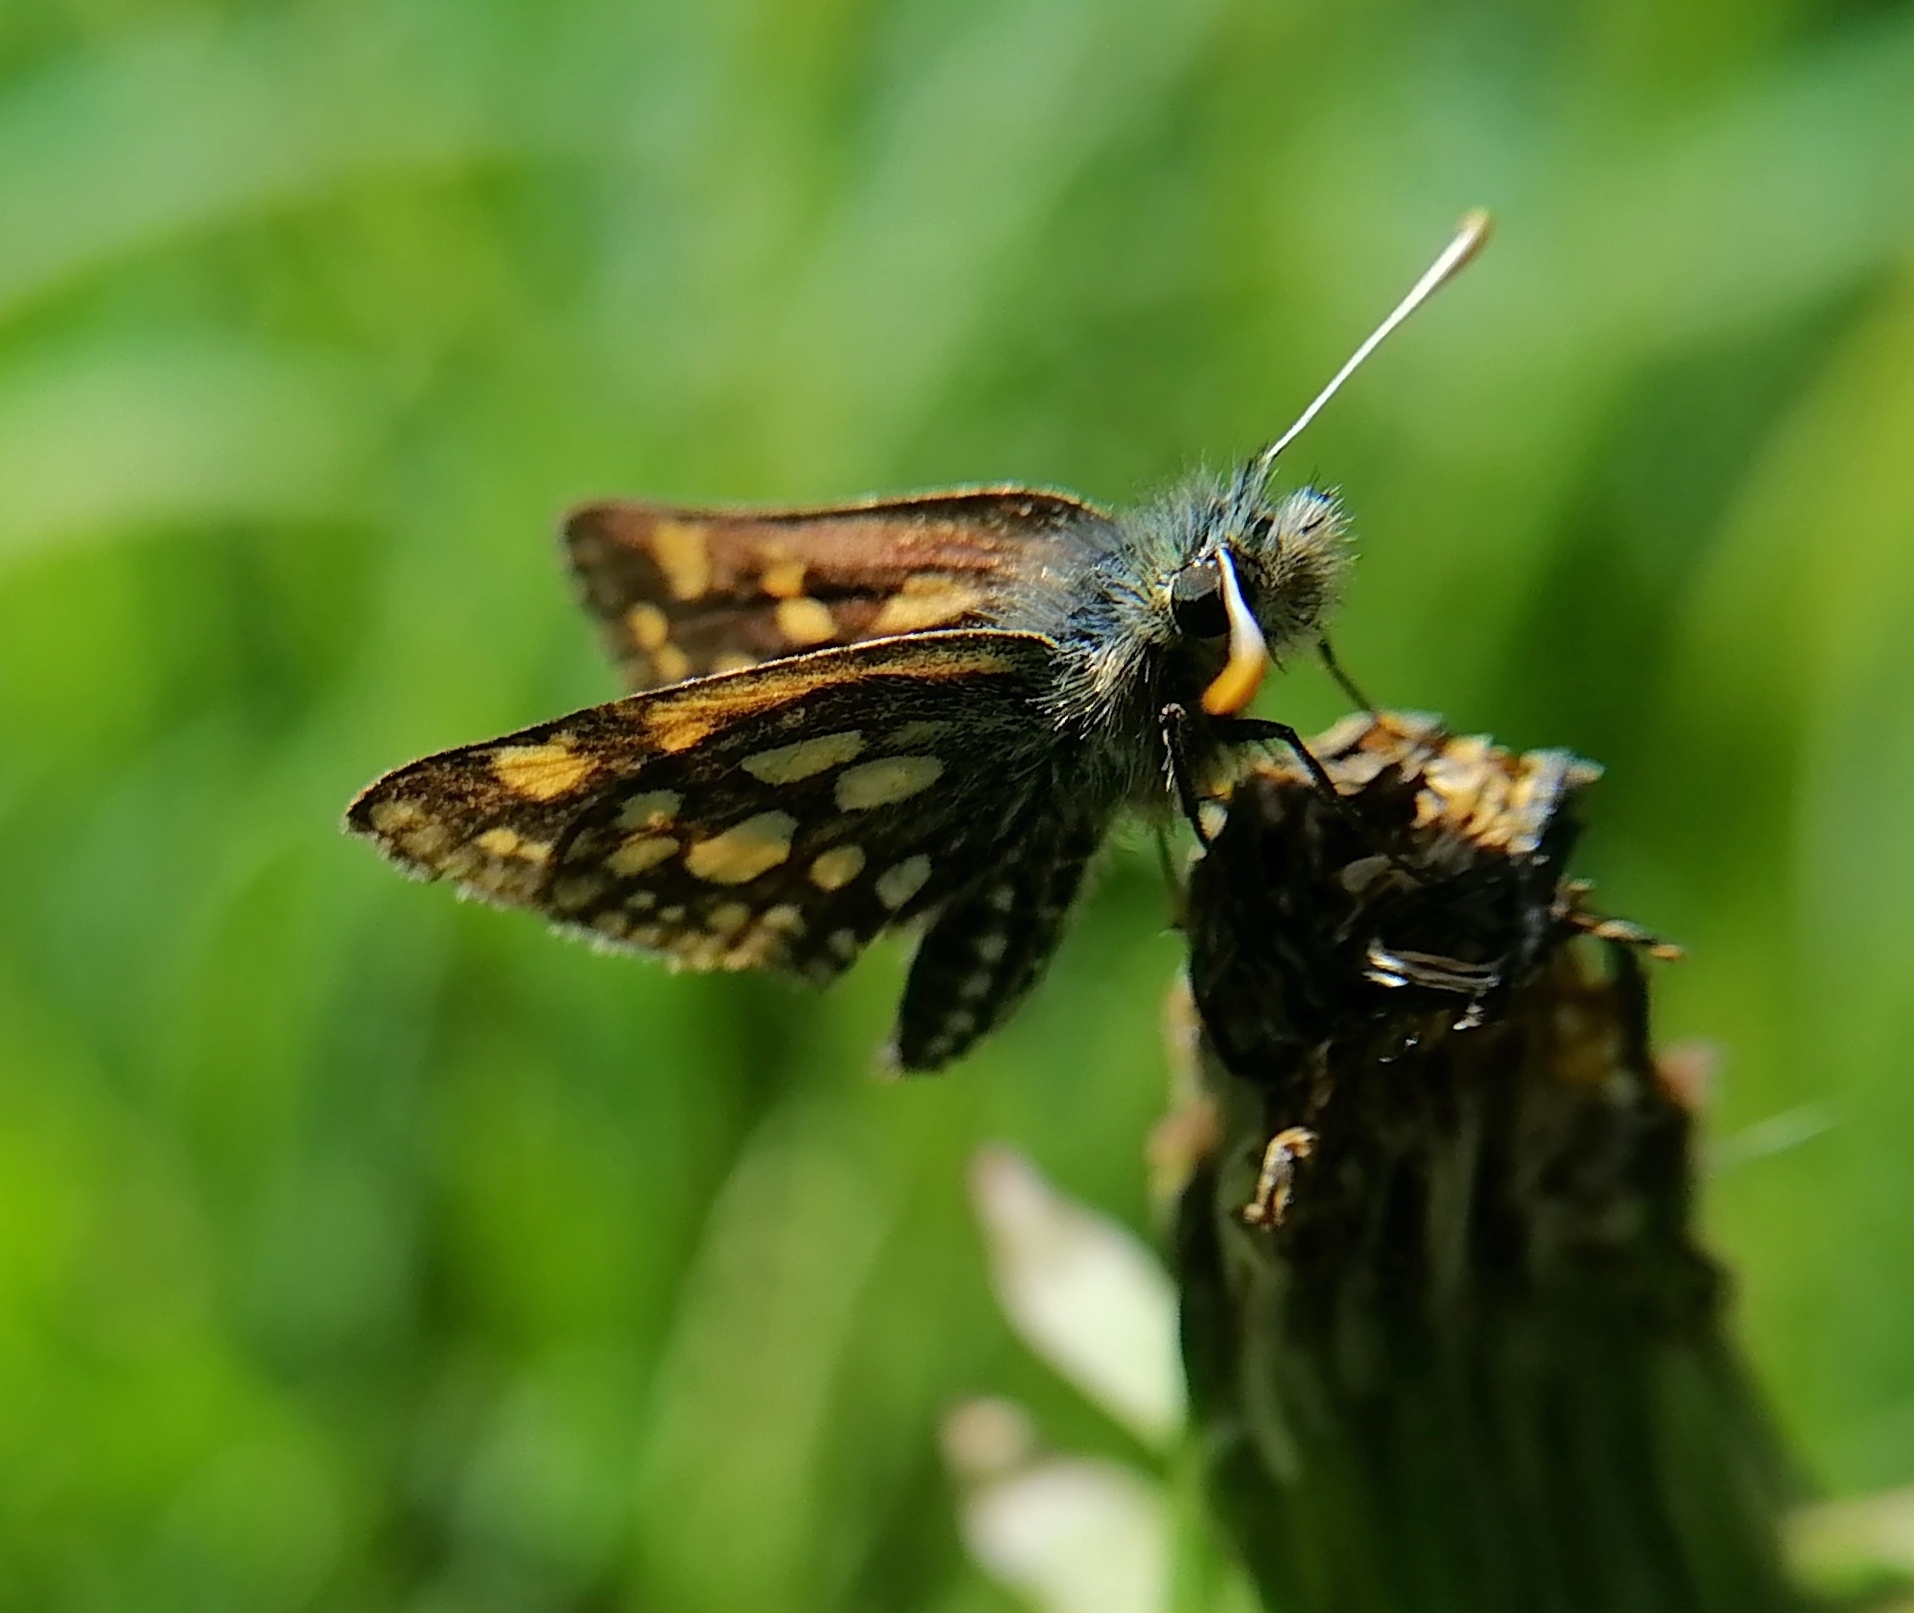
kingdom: Animalia
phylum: Arthropoda
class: Insecta
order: Lepidoptera
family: Hesperiidae
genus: Carterocephalus
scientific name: Carterocephalus palaemon
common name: Chequered skipper
